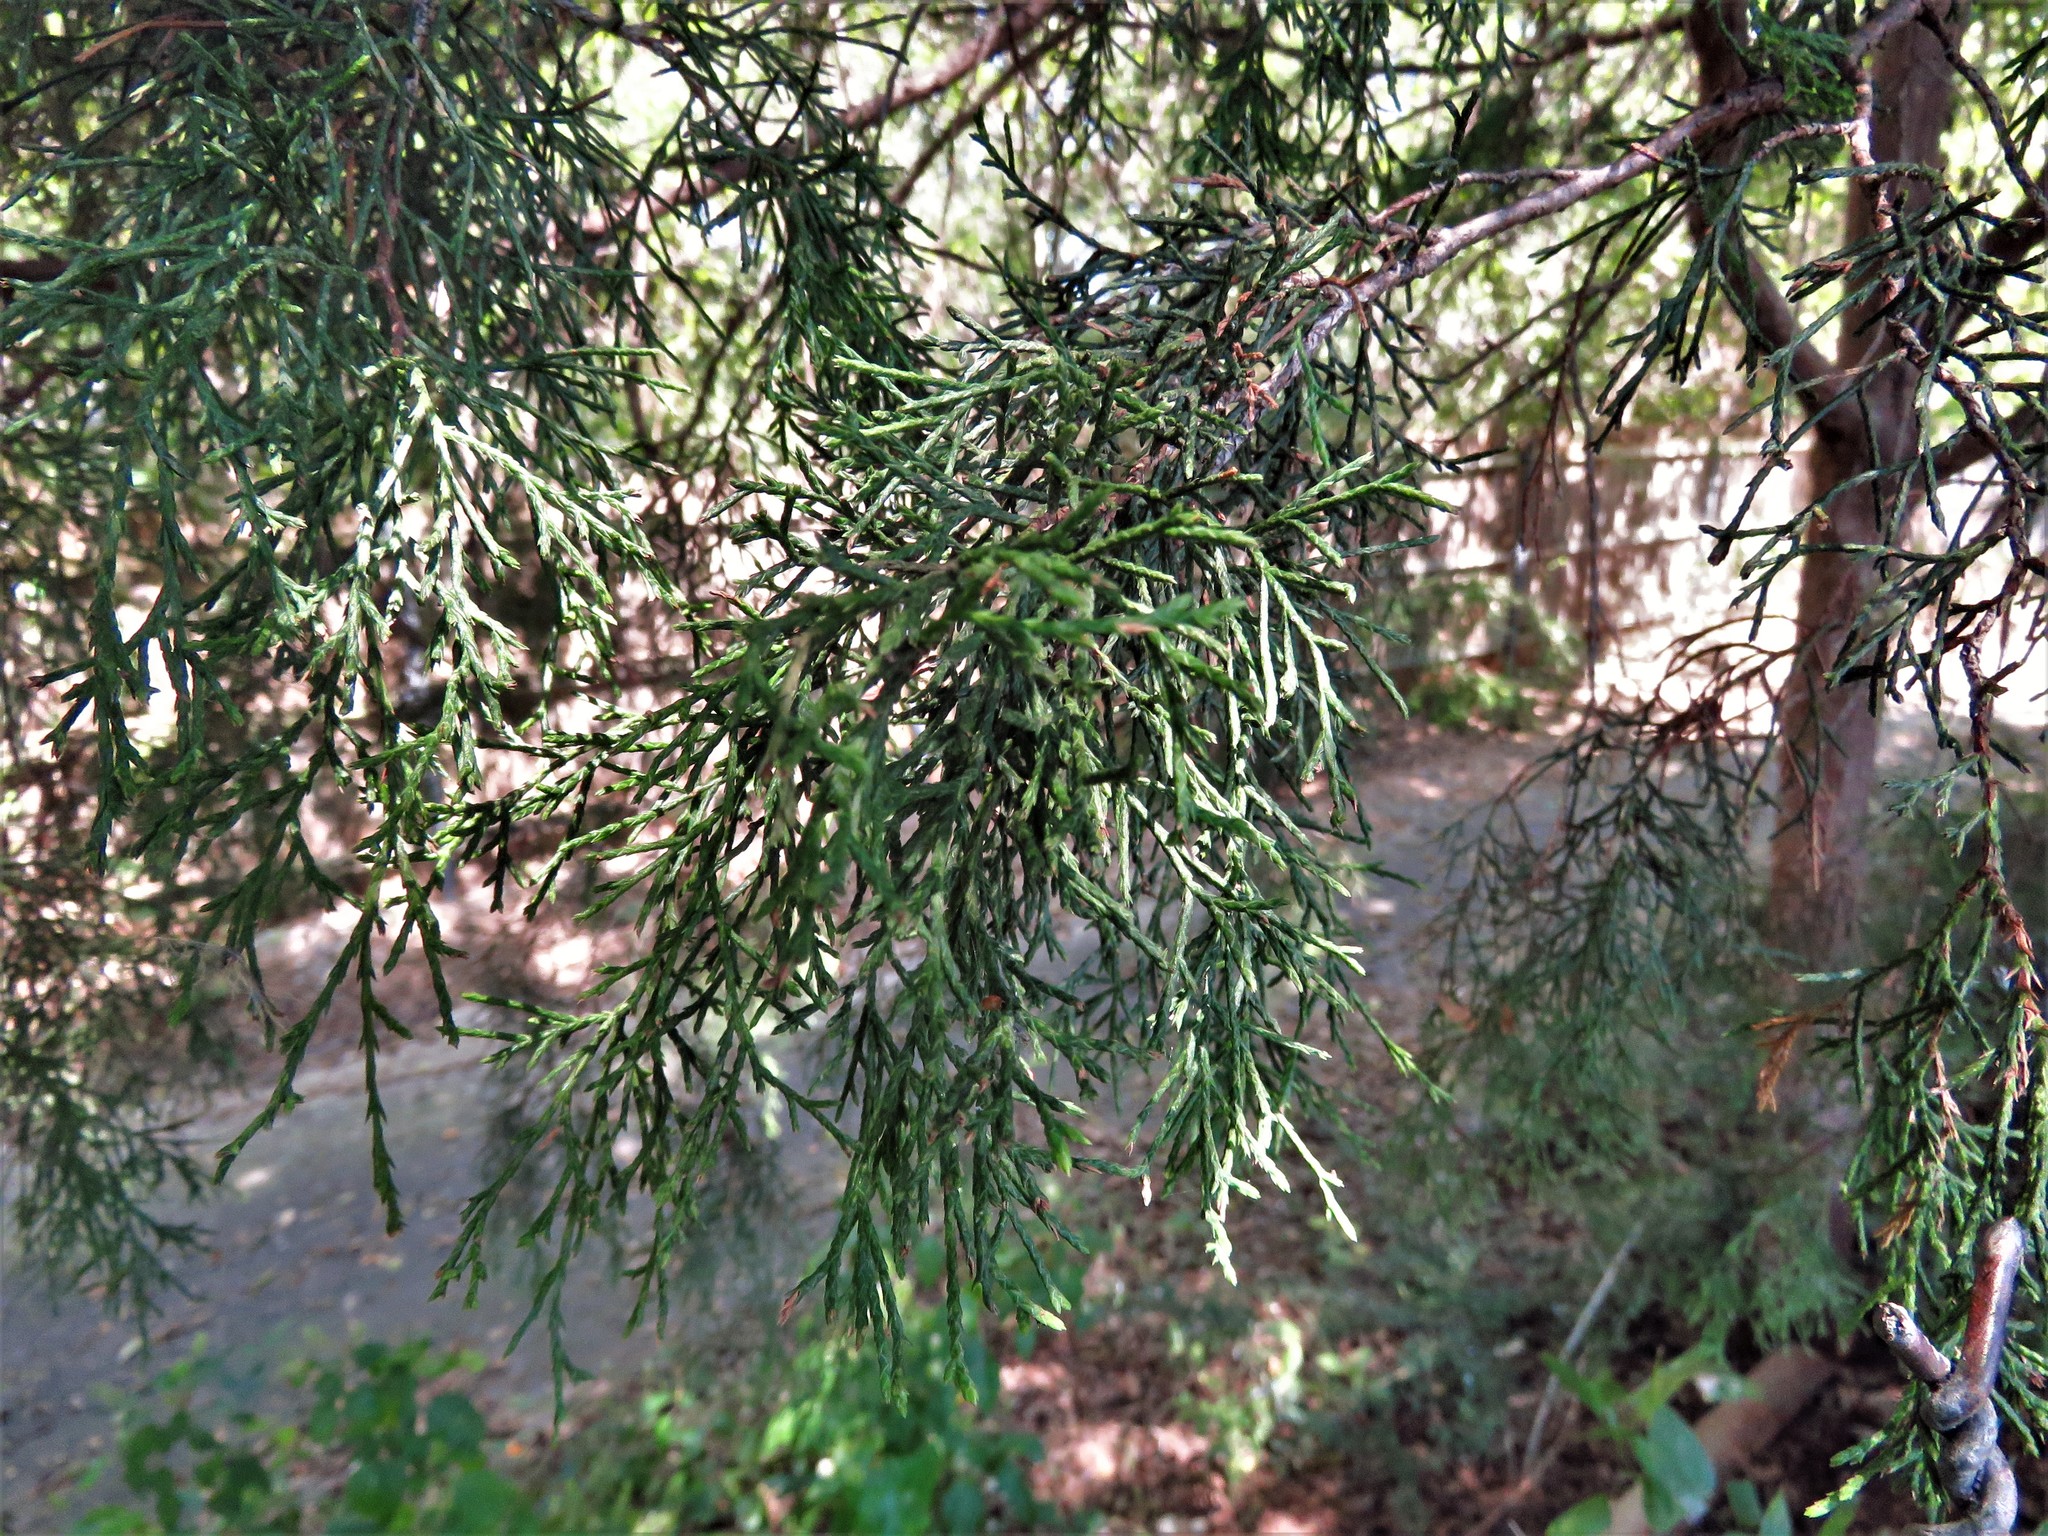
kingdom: Plantae
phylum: Tracheophyta
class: Pinopsida
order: Pinales
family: Cupressaceae
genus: Juniperus
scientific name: Juniperus virginiana
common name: Red juniper
